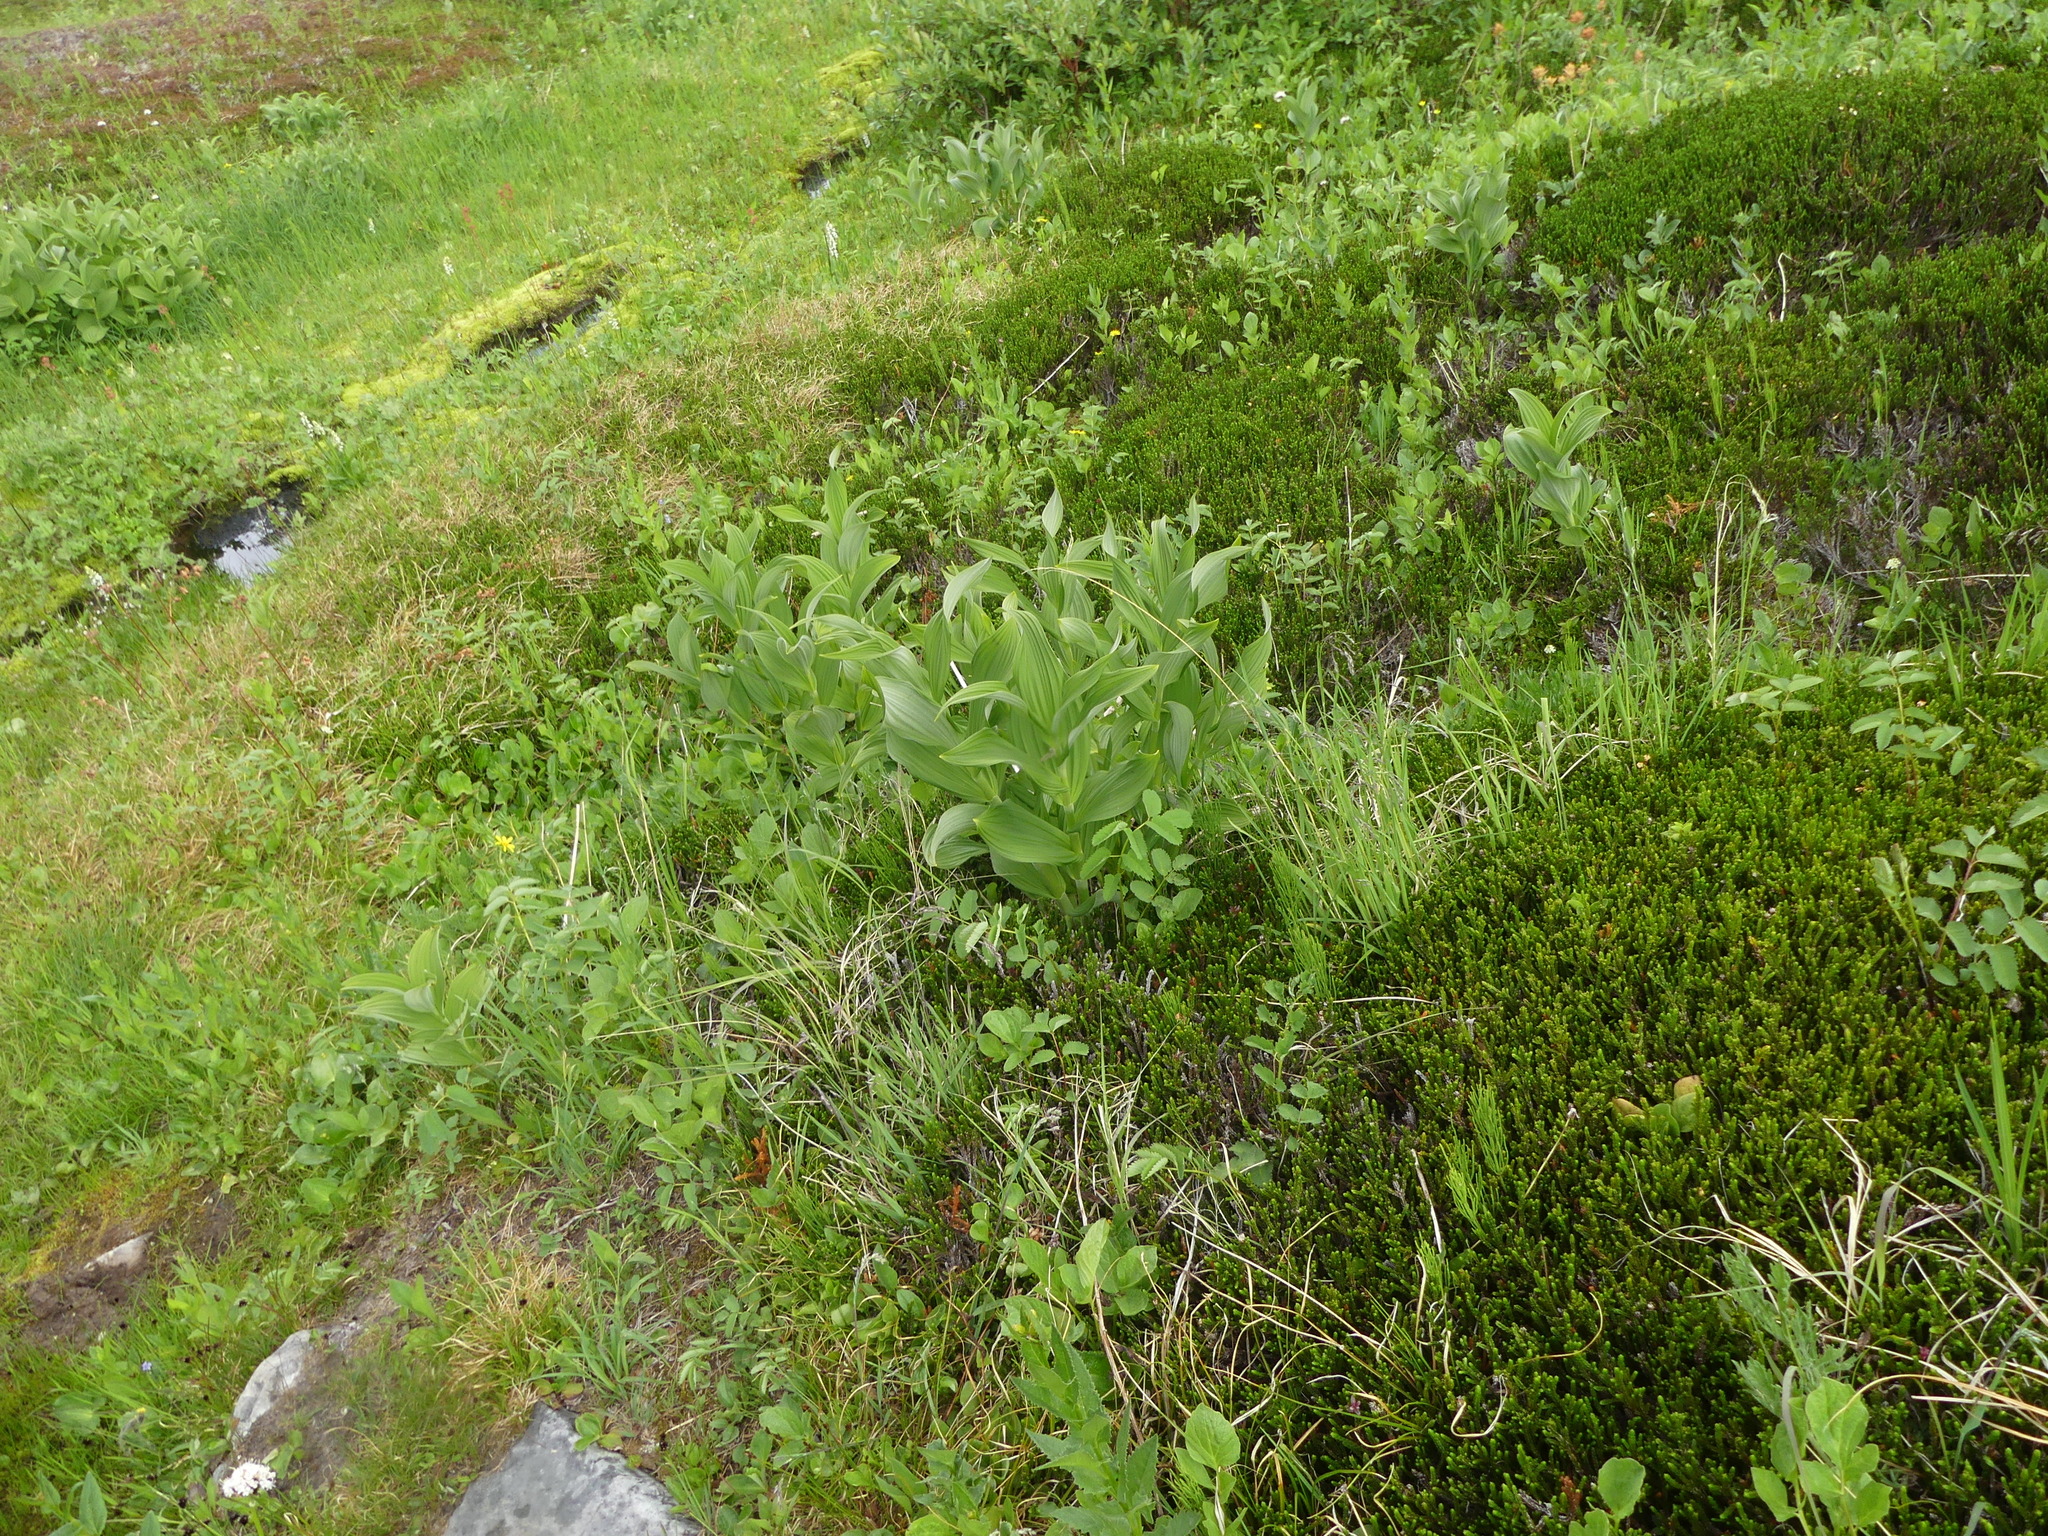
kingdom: Plantae
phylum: Tracheophyta
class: Liliopsida
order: Liliales
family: Melanthiaceae
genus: Veratrum
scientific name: Veratrum viride
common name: American false hellebore
